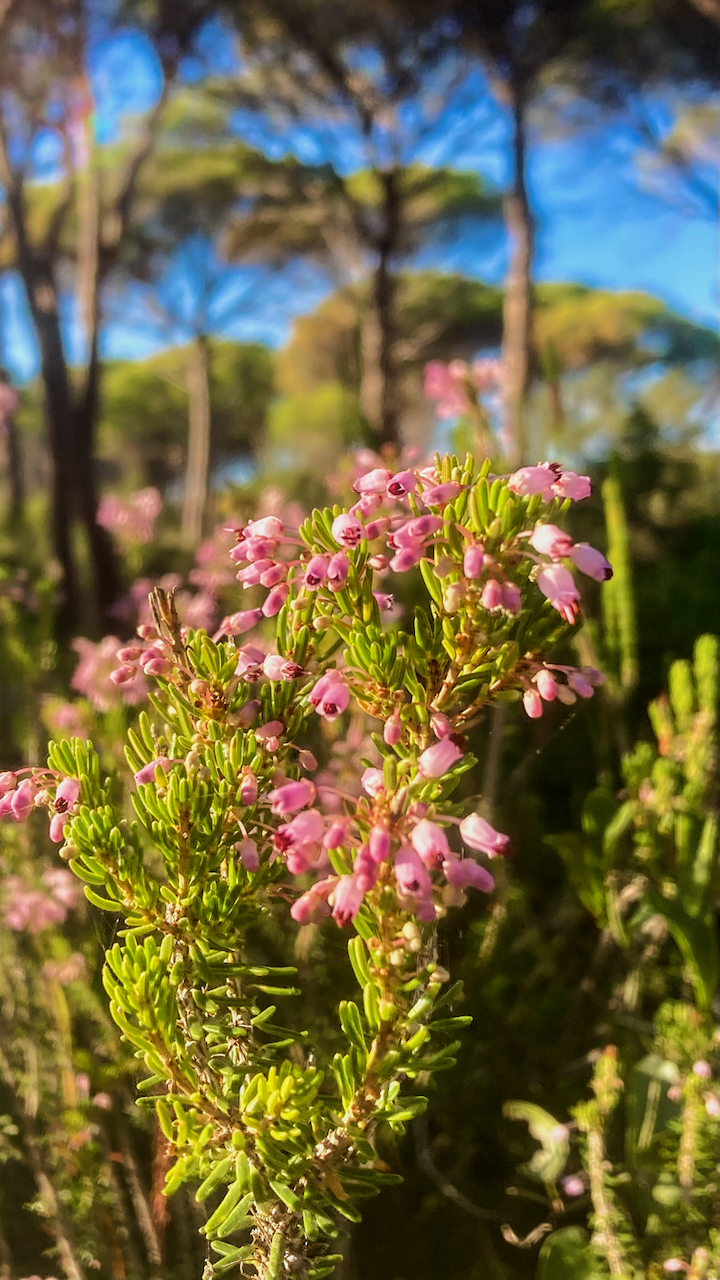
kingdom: Plantae
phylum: Tracheophyta
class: Magnoliopsida
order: Ericales
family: Ericaceae
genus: Erica
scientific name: Erica multiflora
